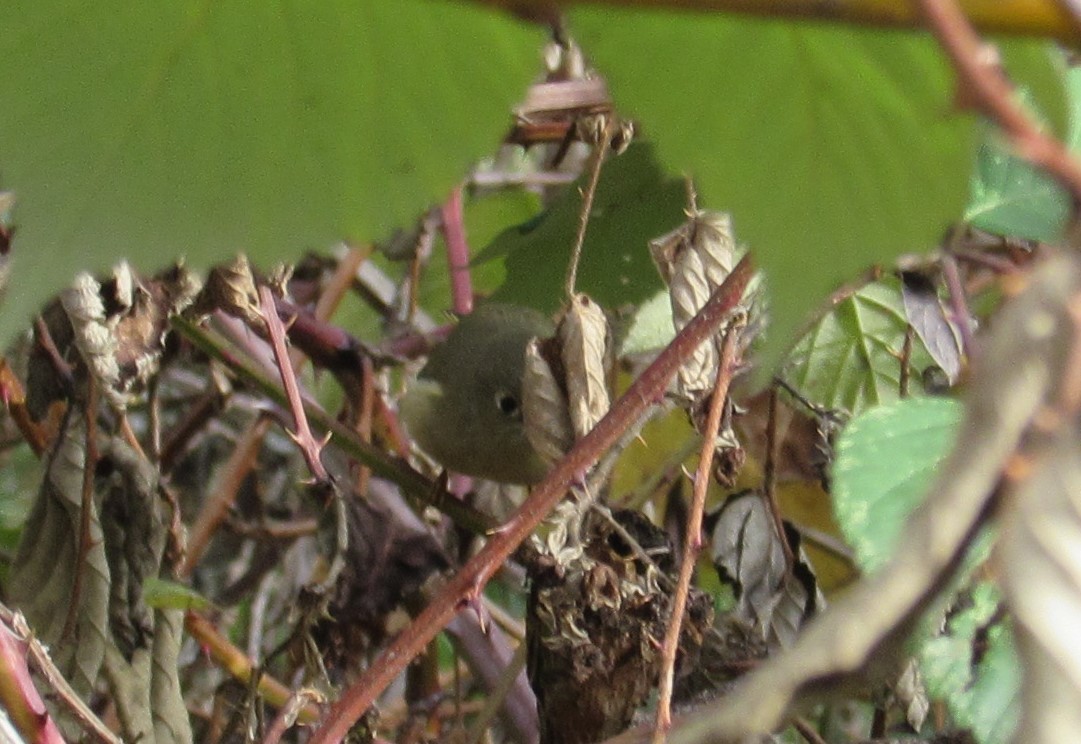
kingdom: Animalia
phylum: Chordata
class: Aves
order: Passeriformes
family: Regulidae
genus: Regulus
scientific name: Regulus calendula
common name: Ruby-crowned kinglet
